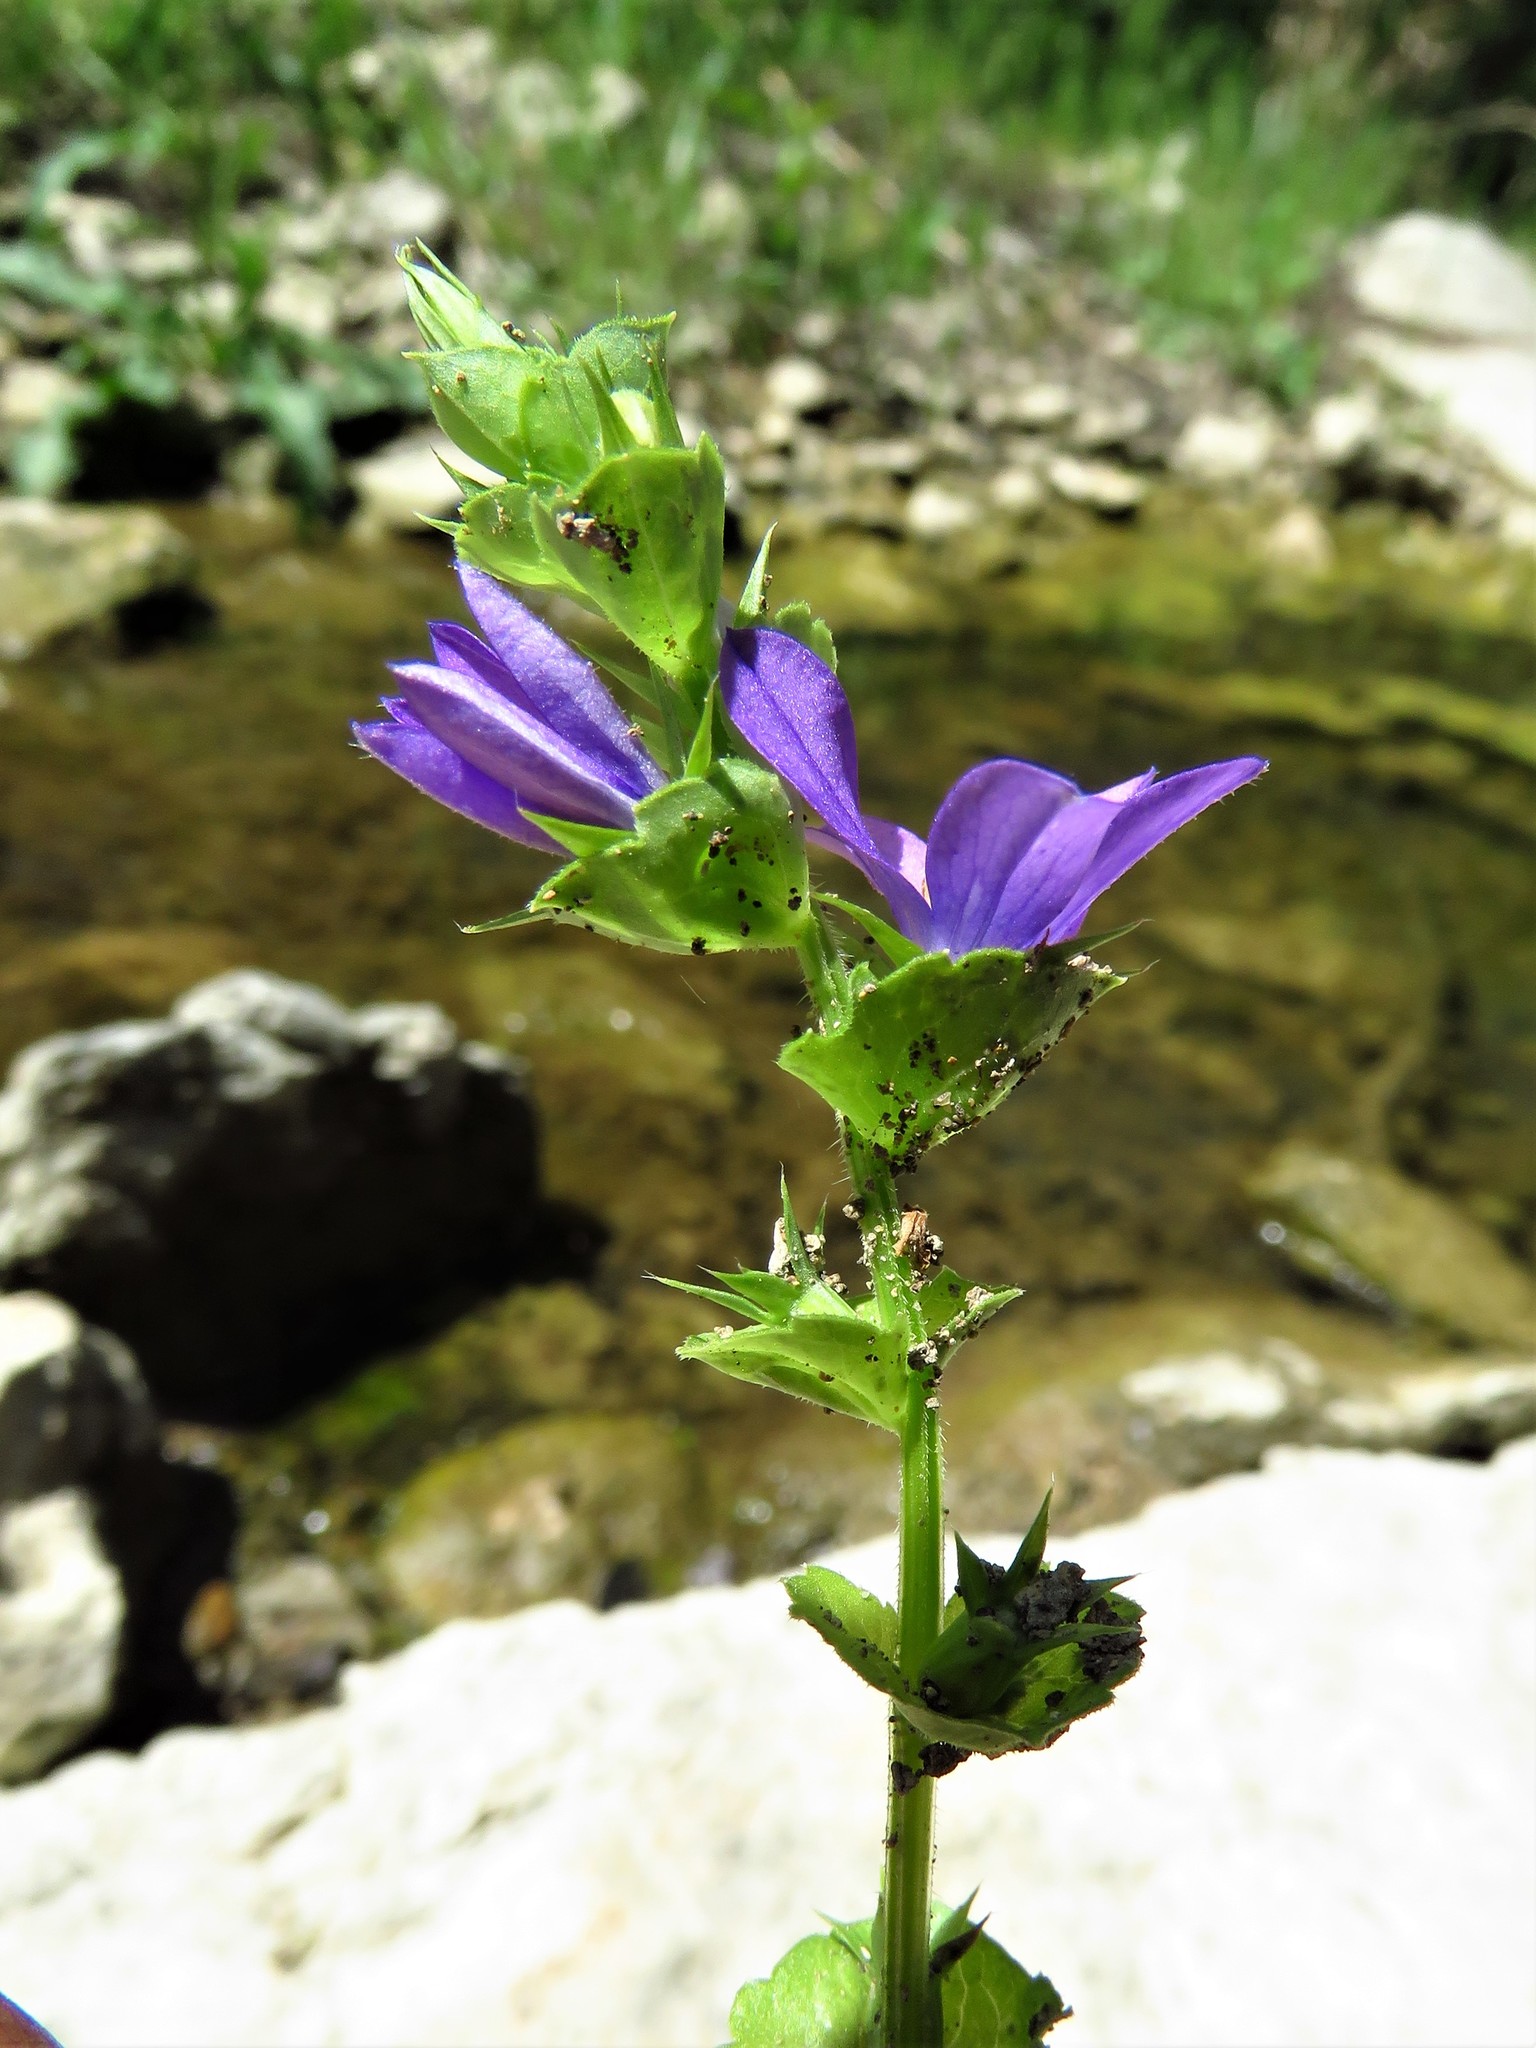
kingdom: Plantae
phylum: Tracheophyta
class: Magnoliopsida
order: Asterales
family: Campanulaceae
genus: Triodanis
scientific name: Triodanis perfoliata
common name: Clasping venus' looking-glass
